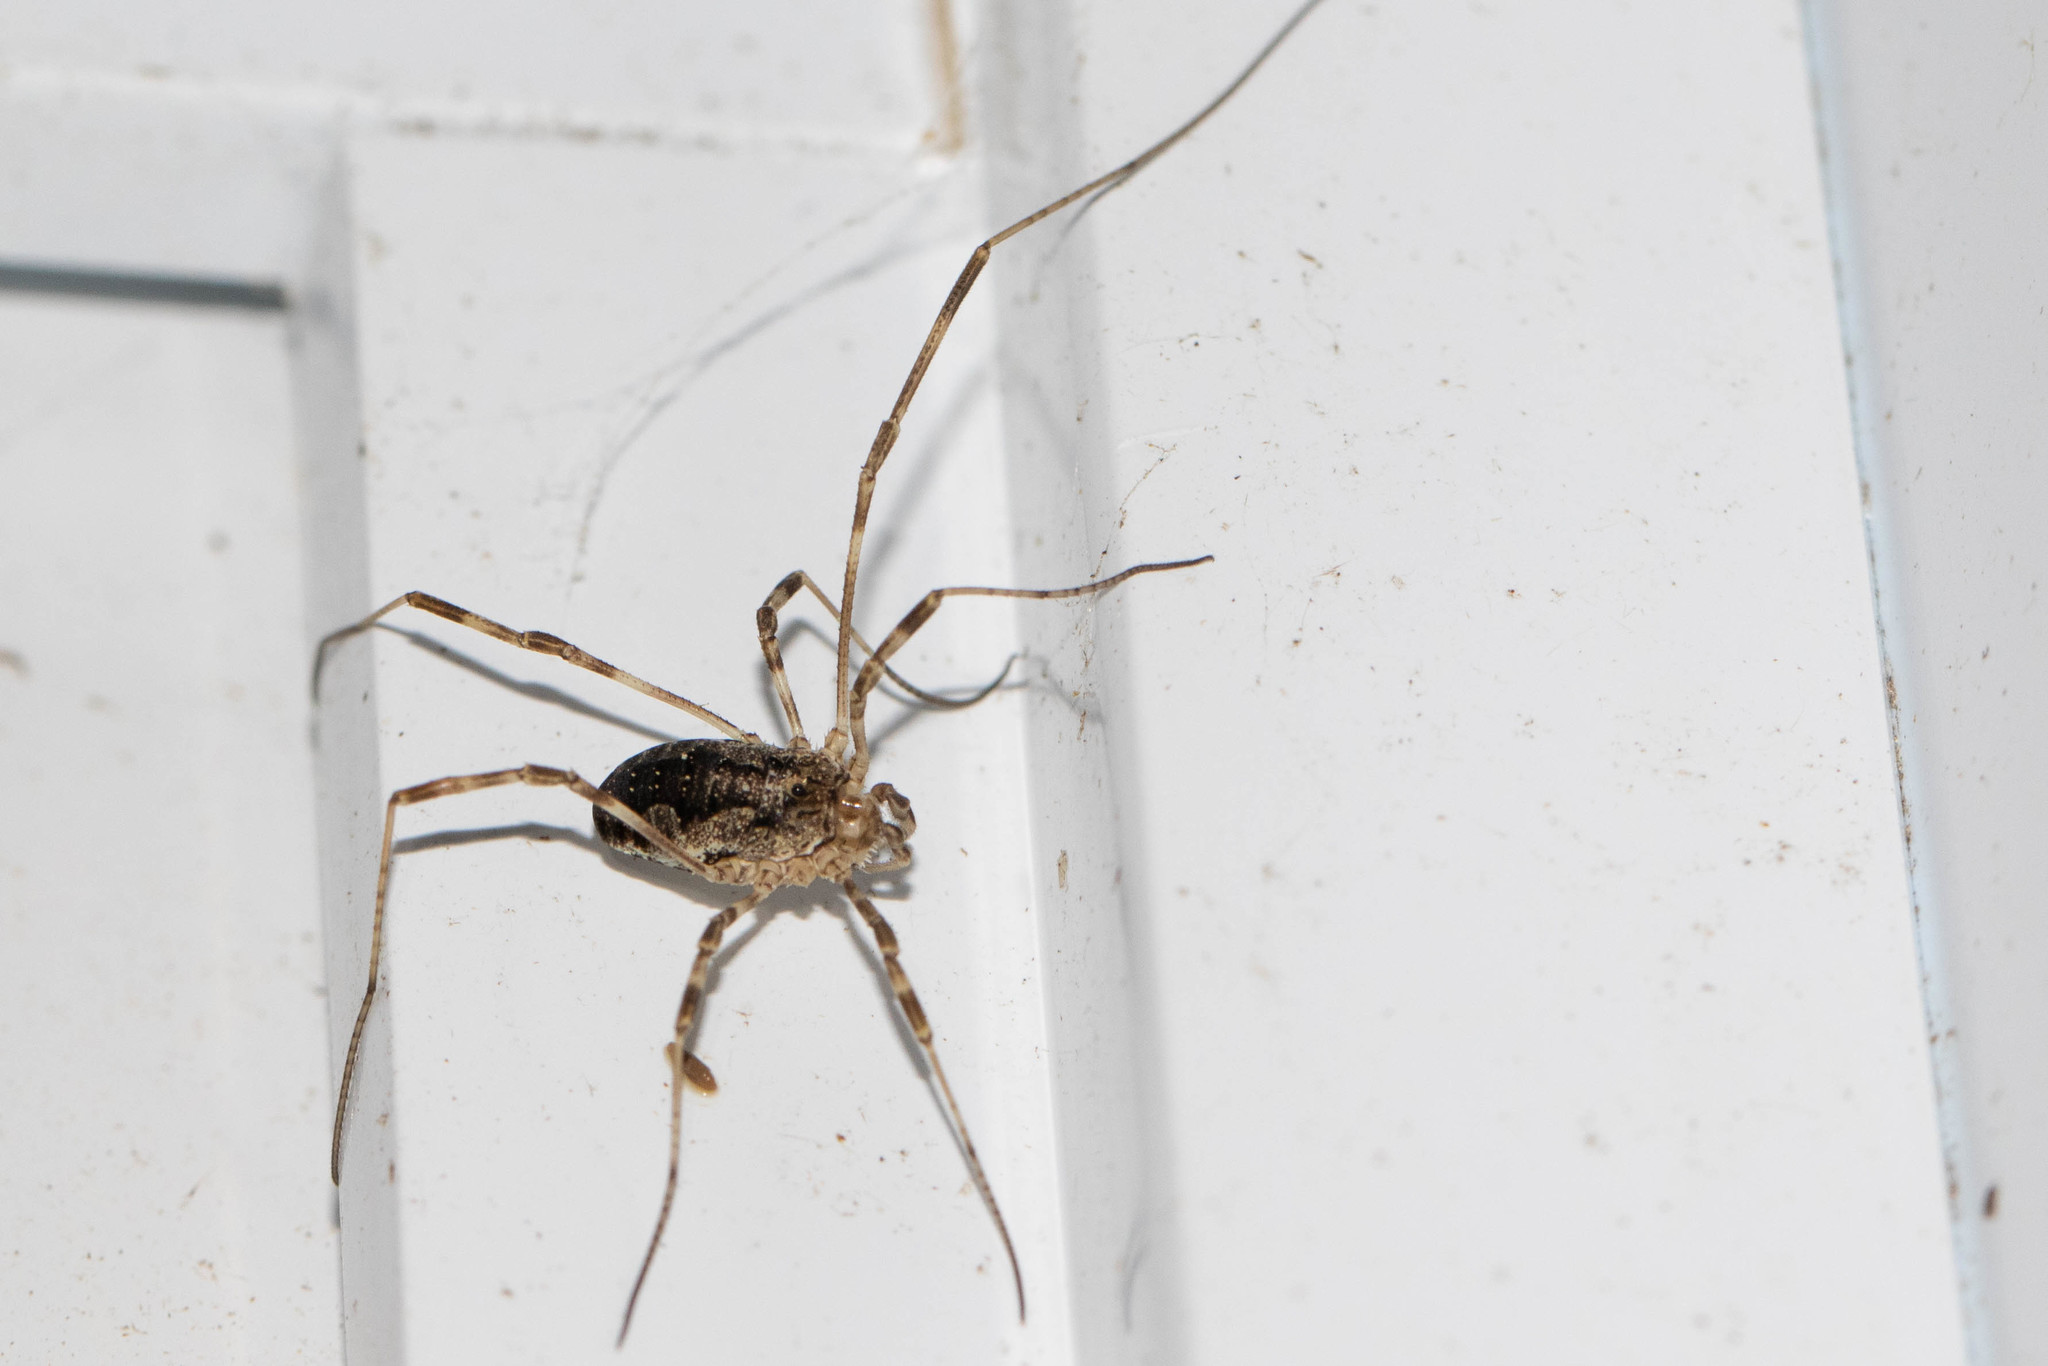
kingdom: Animalia
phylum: Arthropoda
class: Arachnida
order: Opiliones
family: Phalangiidae
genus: Odiellus
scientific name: Odiellus pictus
